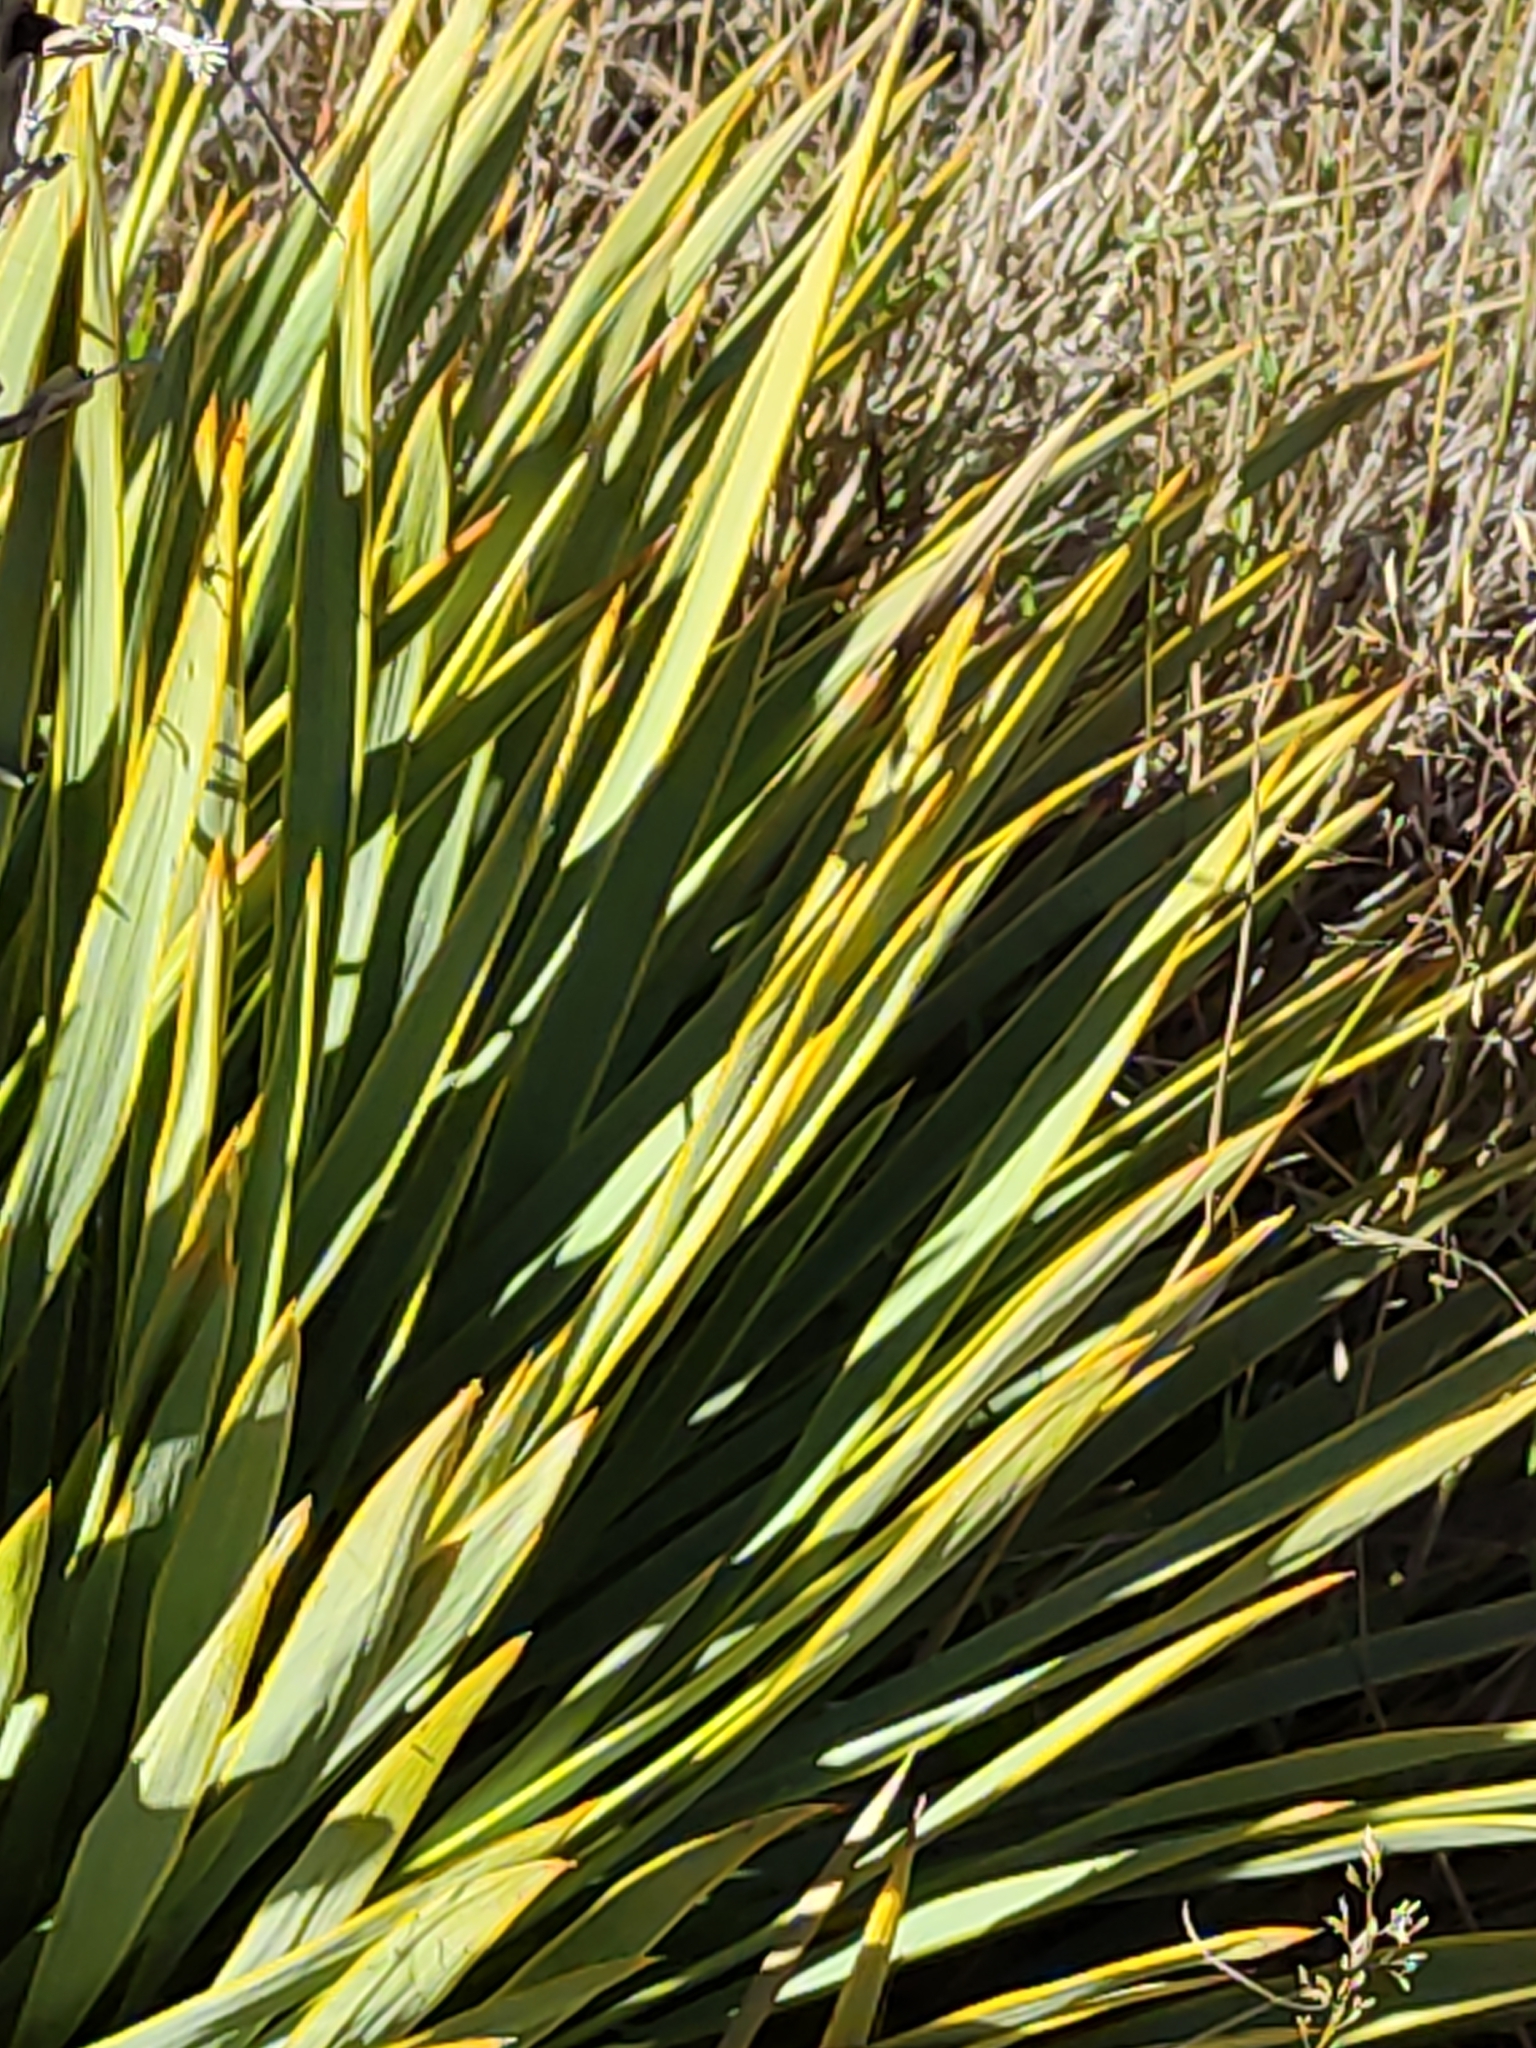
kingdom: Plantae
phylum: Tracheophyta
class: Magnoliopsida
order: Apiales
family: Apiaceae
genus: Aciphylla
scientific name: Aciphylla aurea
